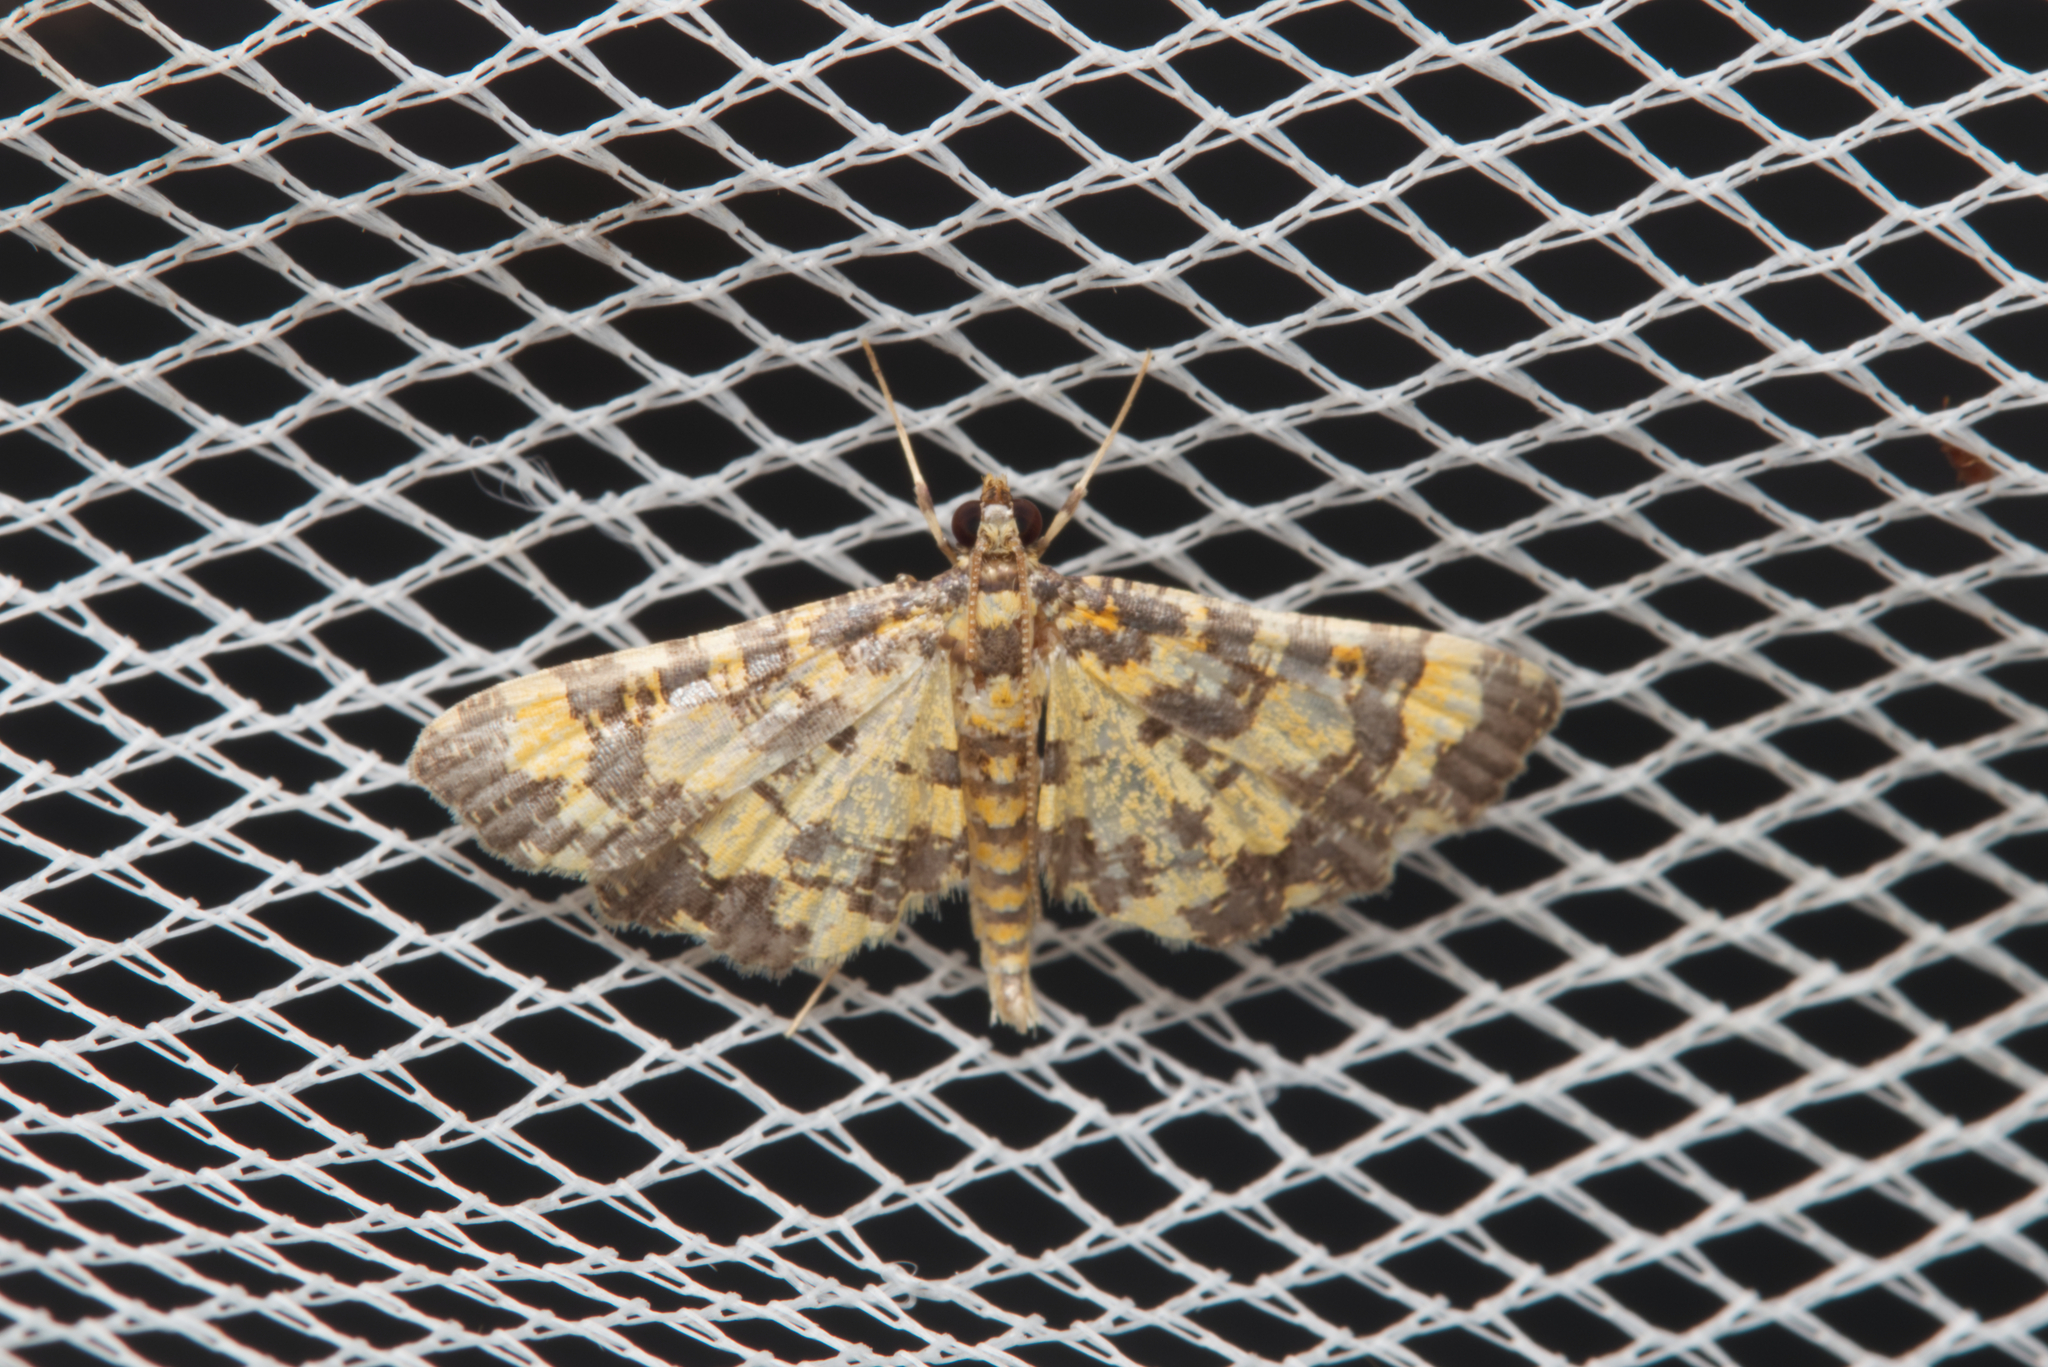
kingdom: Animalia
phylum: Arthropoda
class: Insecta
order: Lepidoptera
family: Crambidae
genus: Eurrhyparodes
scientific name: Eurrhyparodes tricoloralis
